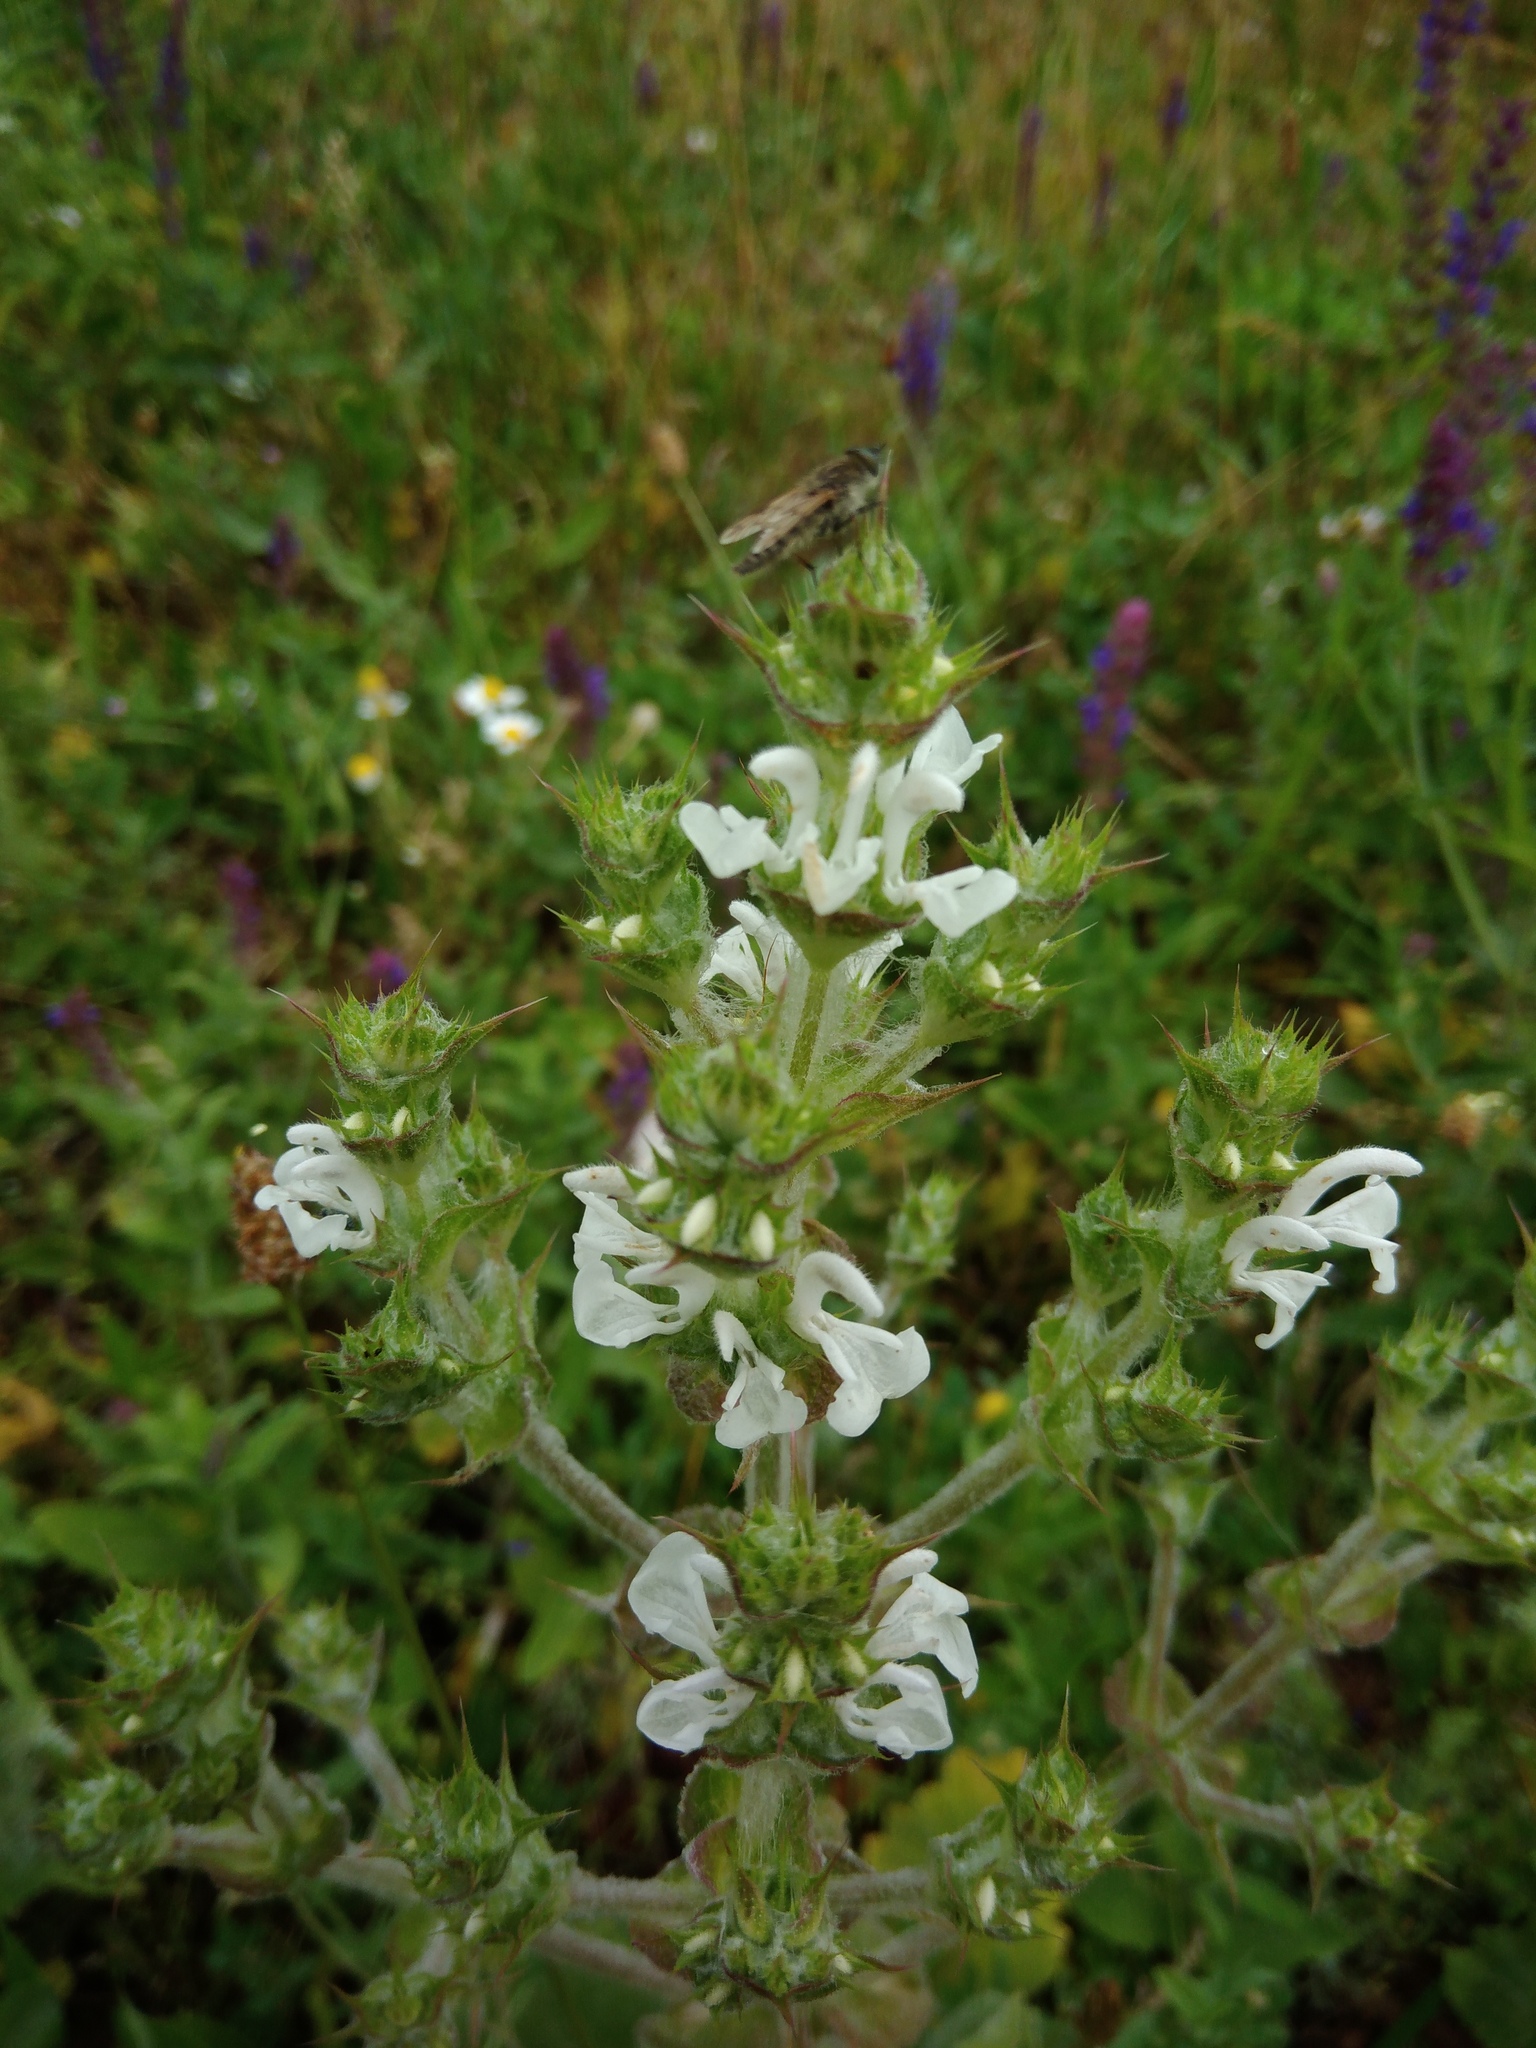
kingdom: Plantae
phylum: Tracheophyta
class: Magnoliopsida
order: Lamiales
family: Lamiaceae
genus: Salvia
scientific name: Salvia aethiopis
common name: Mediterranean sage
